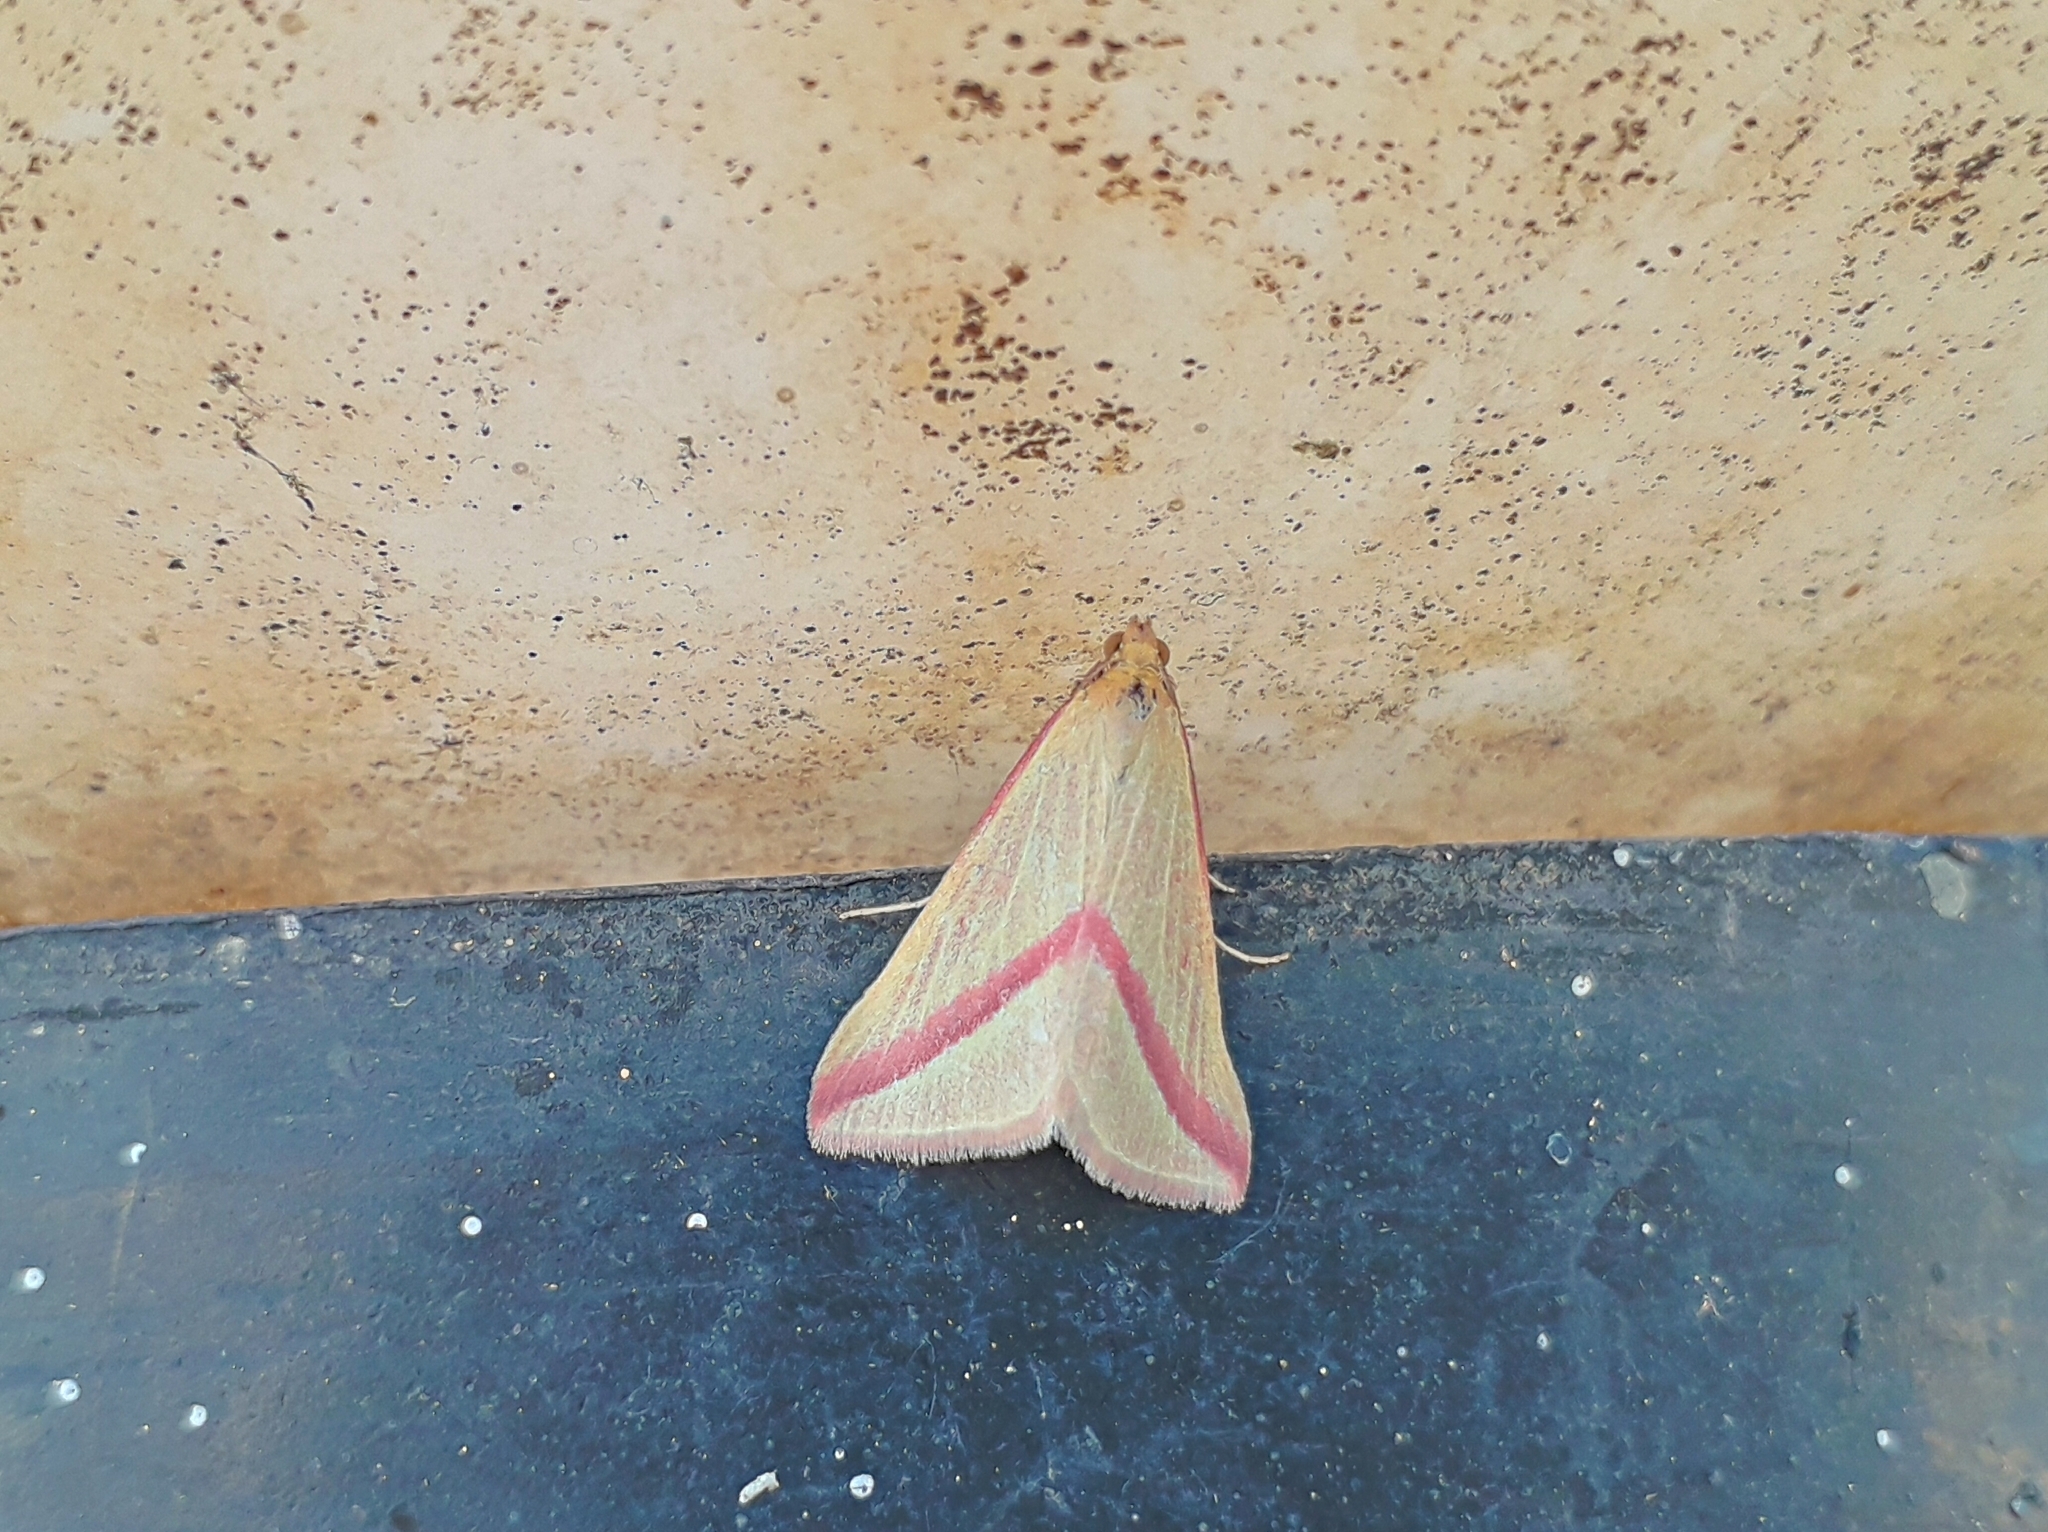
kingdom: Animalia
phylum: Arthropoda
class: Insecta
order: Lepidoptera
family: Geometridae
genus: Rhodometra
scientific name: Rhodometra sacraria
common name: Vestal
